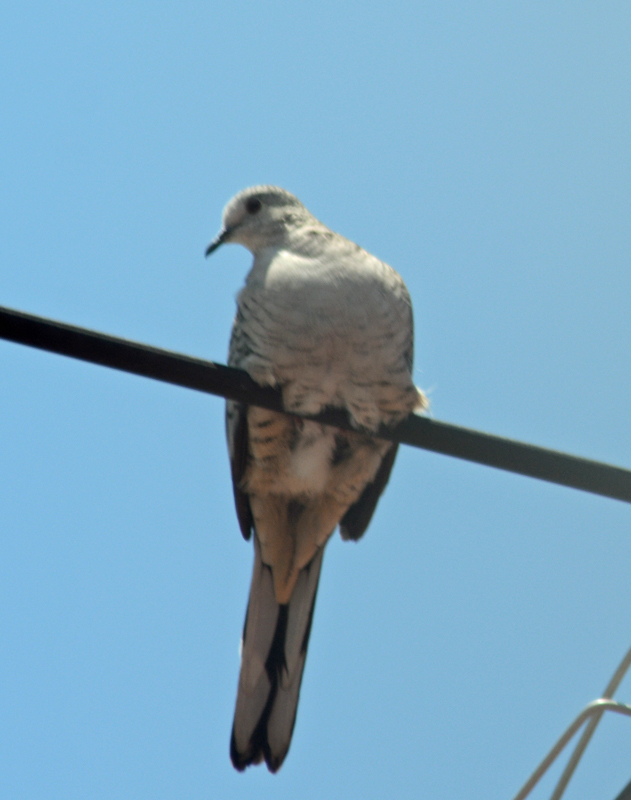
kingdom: Animalia
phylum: Chordata
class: Aves
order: Columbiformes
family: Columbidae
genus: Columbina
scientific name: Columbina inca
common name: Inca dove
